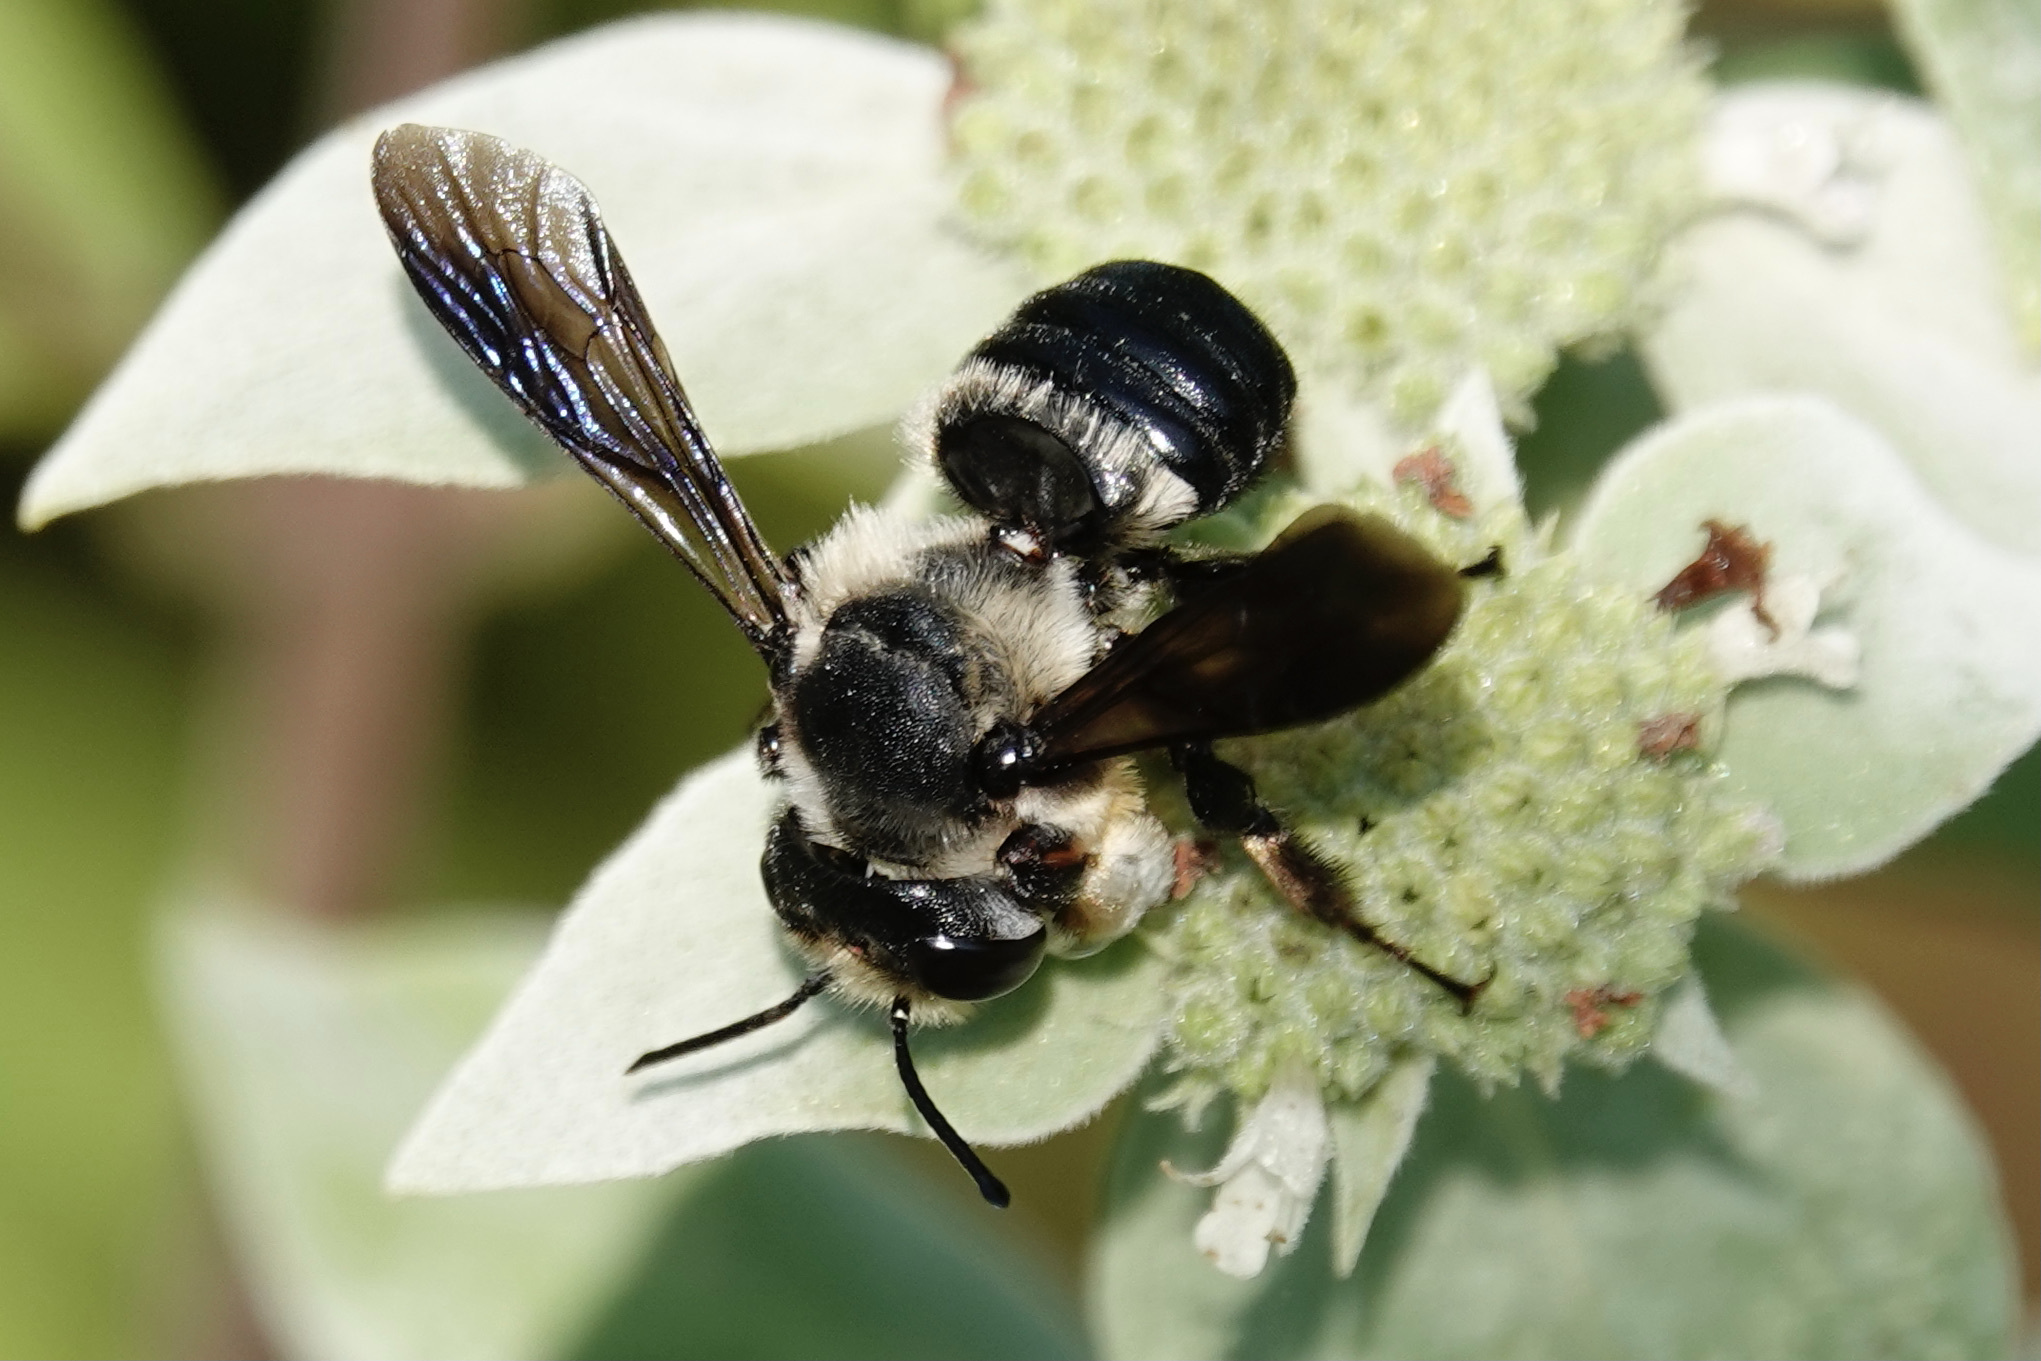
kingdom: Animalia
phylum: Arthropoda
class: Insecta
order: Hymenoptera
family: Megachilidae
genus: Megachile
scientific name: Megachile xylocopoides
